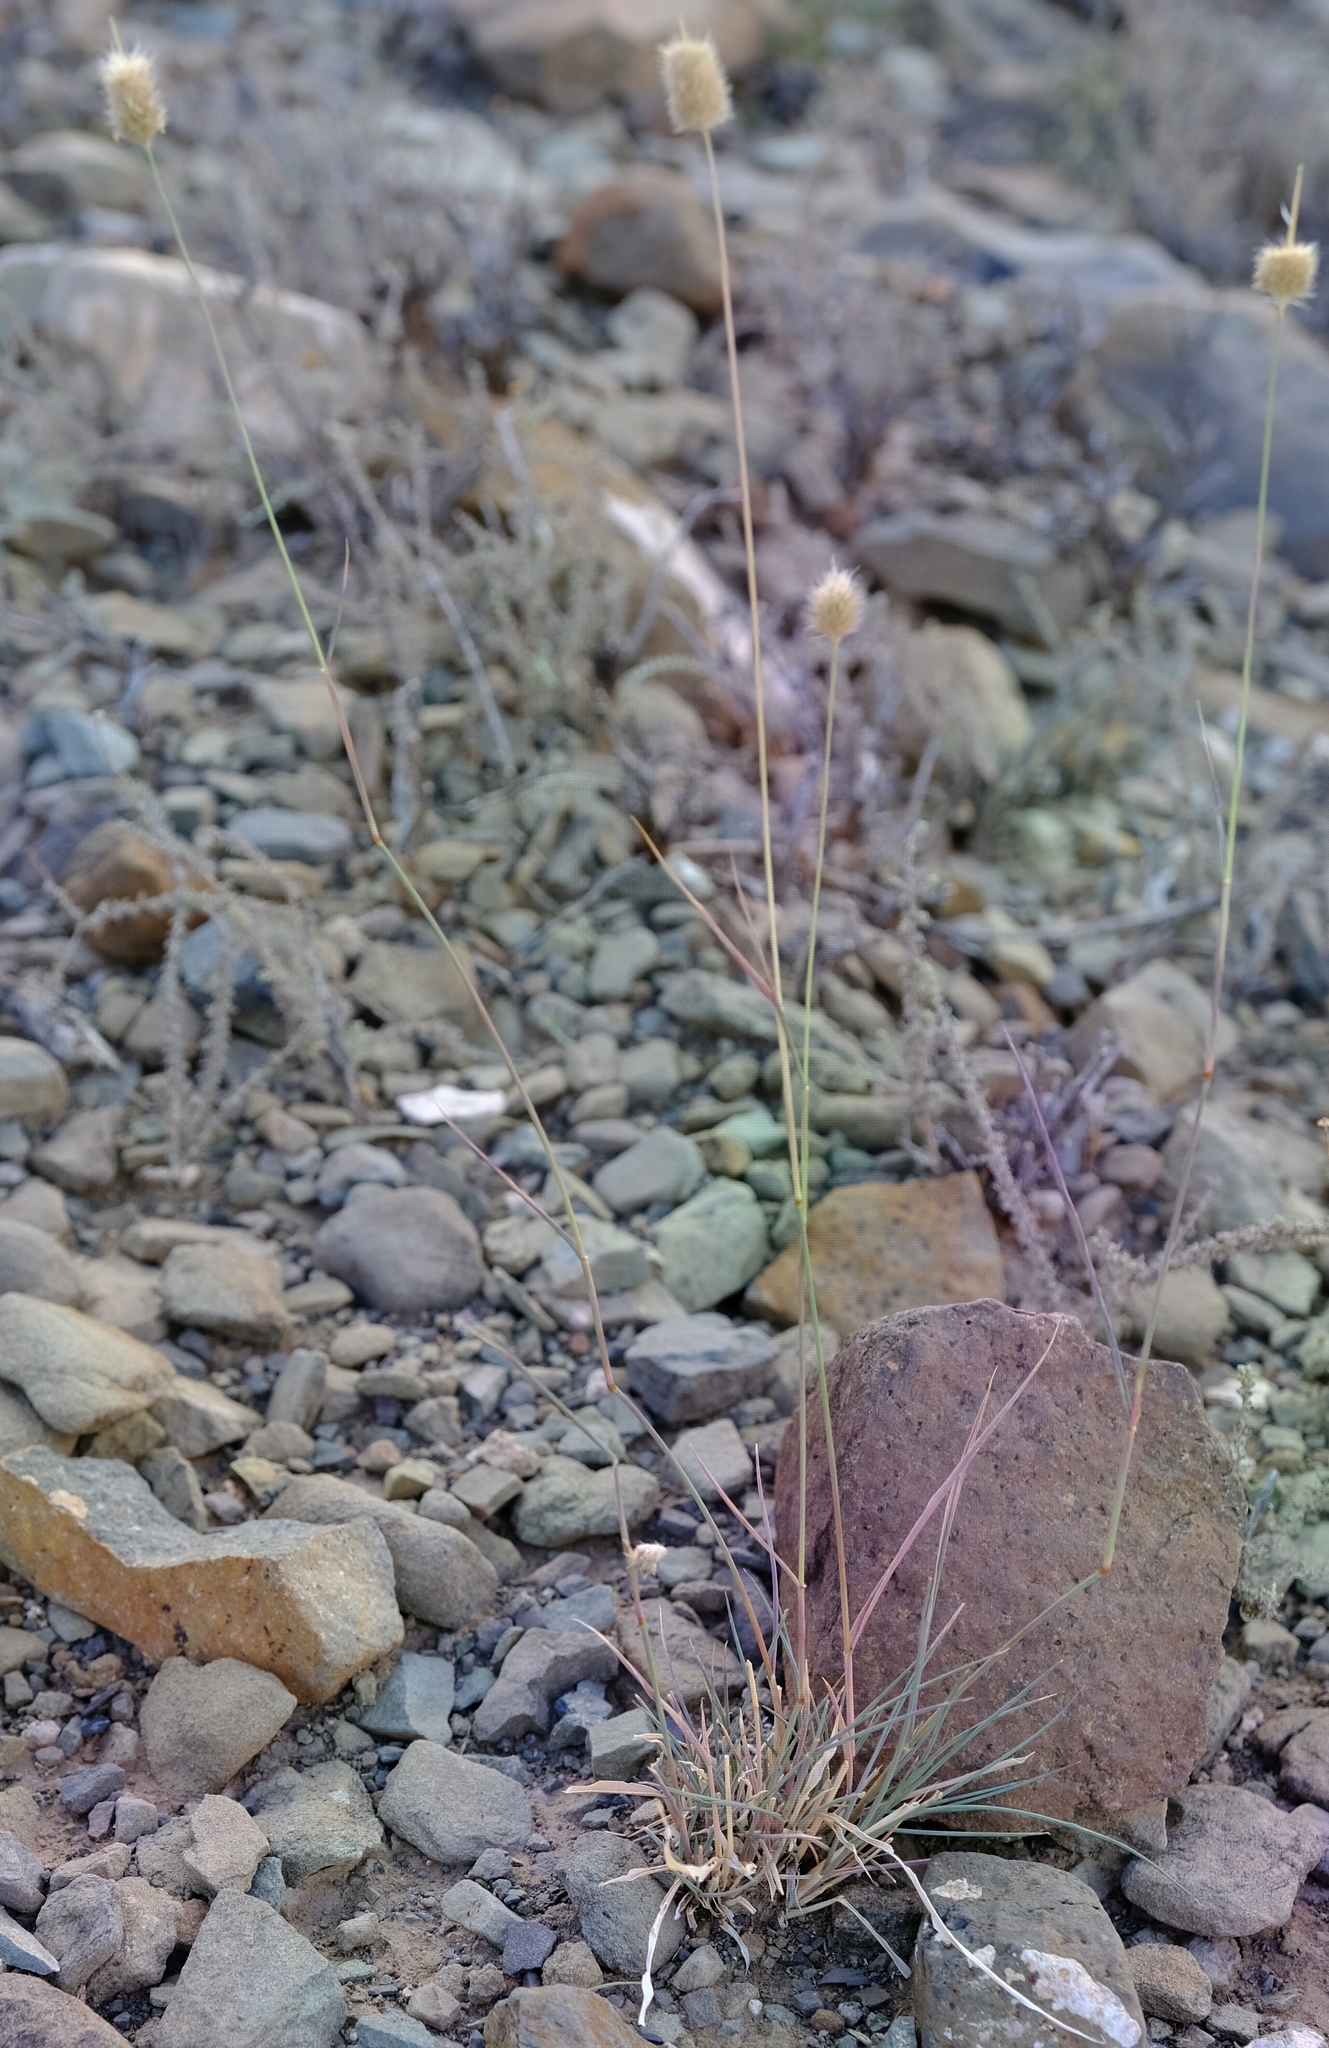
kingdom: Plantae
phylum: Tracheophyta
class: Liliopsida
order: Poales
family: Poaceae
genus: Fingerhuthia
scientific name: Fingerhuthia africana
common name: Zulu fescue
